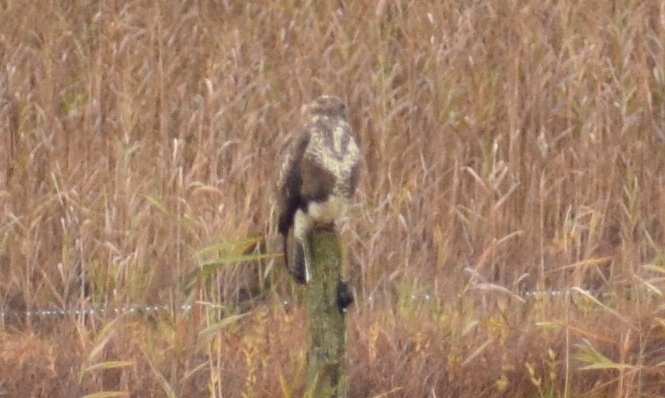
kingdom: Animalia
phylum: Chordata
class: Aves
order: Accipitriformes
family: Accipitridae
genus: Buteo
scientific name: Buteo buteo
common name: Common buzzard
